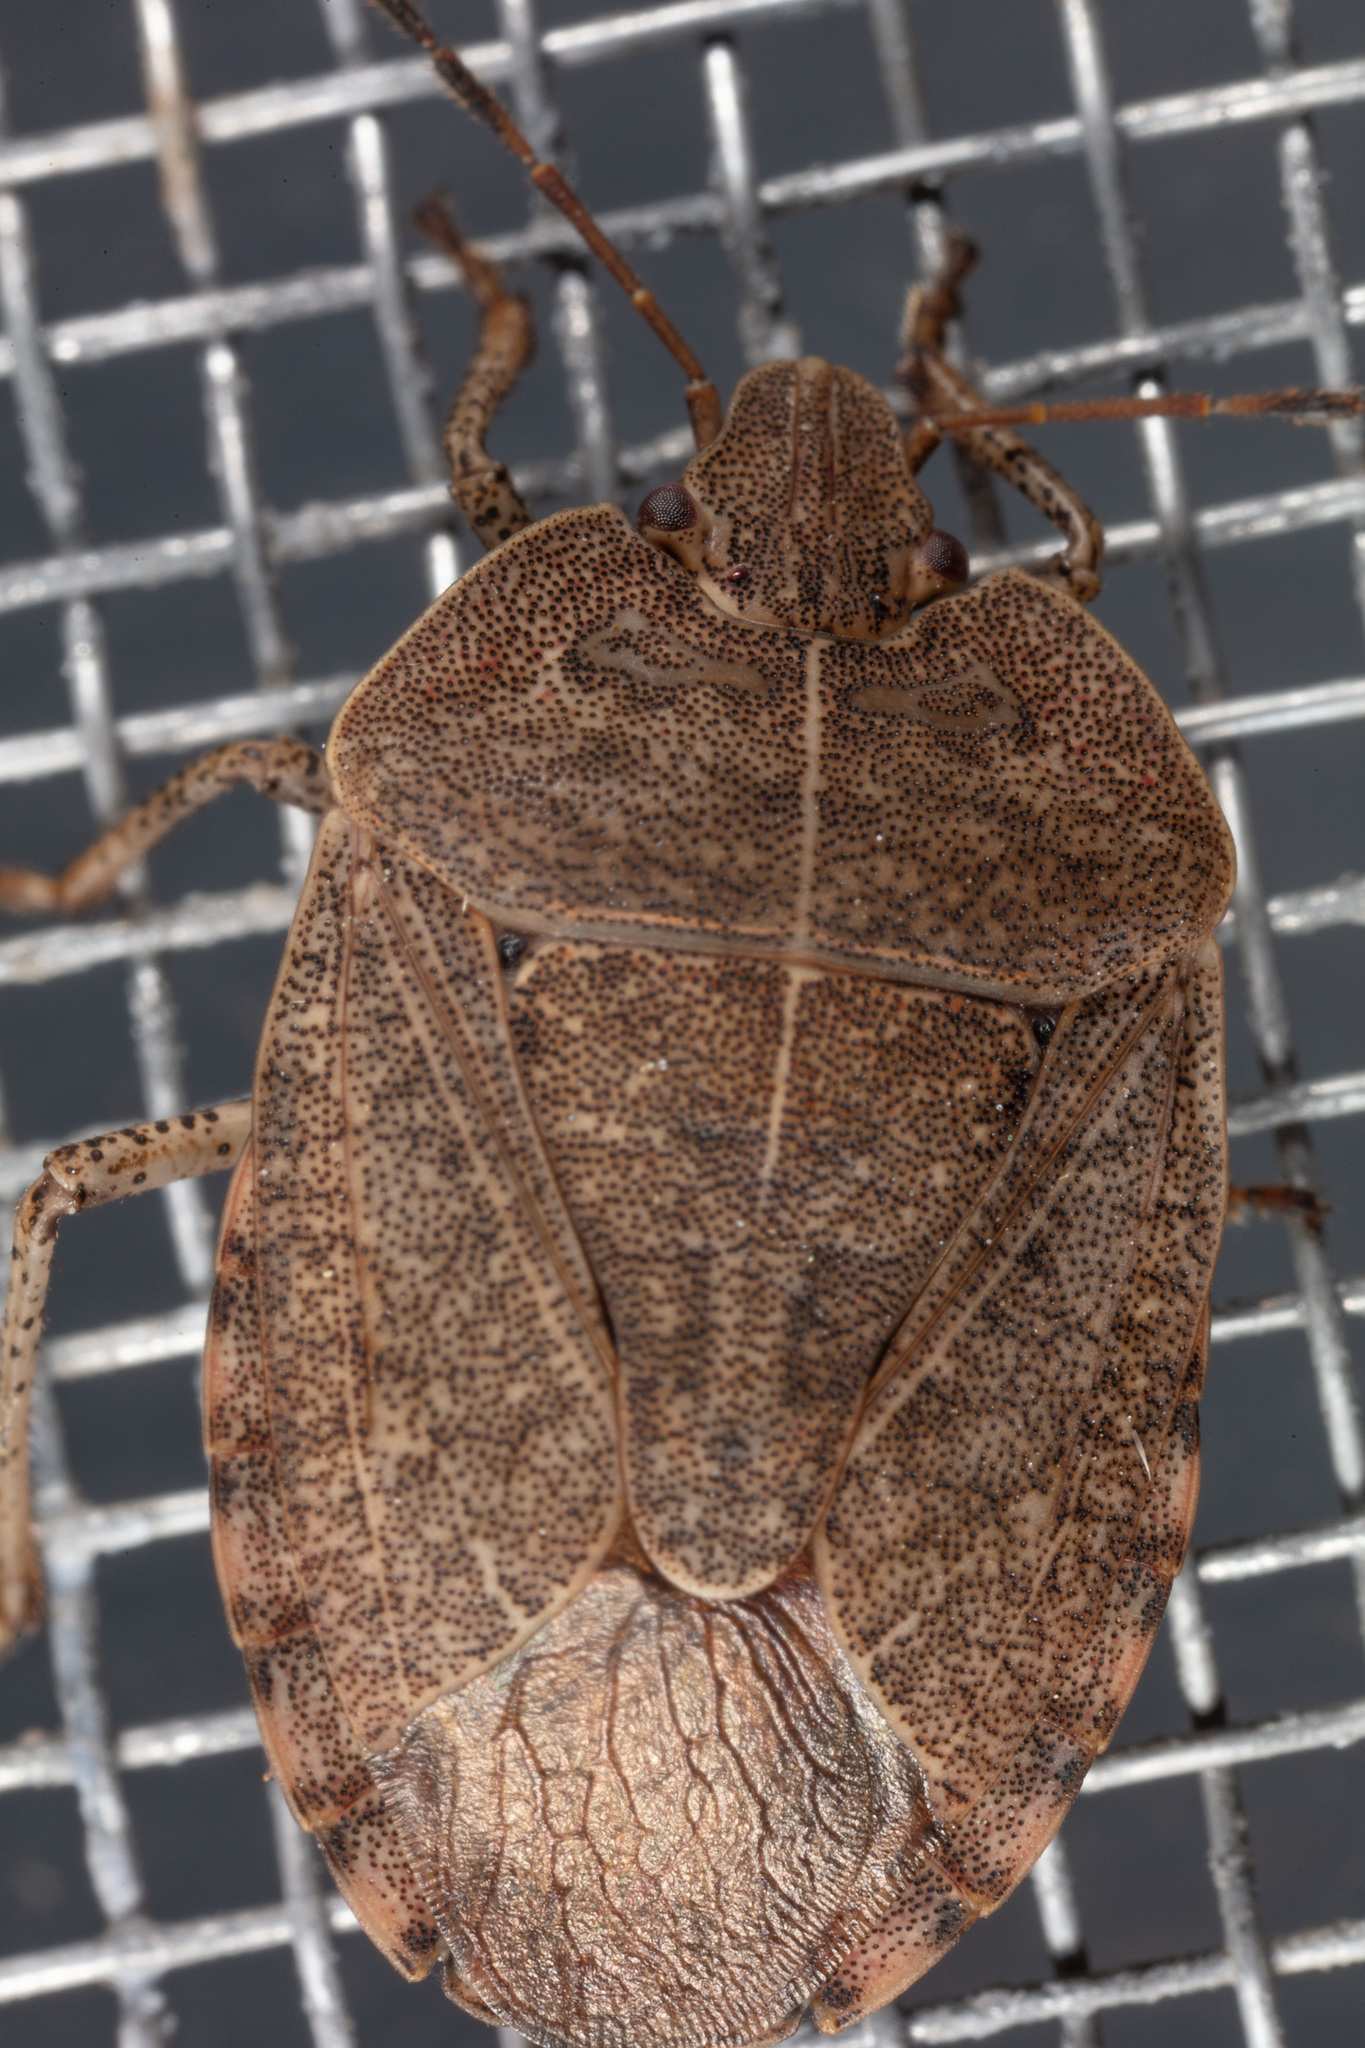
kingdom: Animalia
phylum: Arthropoda
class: Insecta
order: Hemiptera
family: Pentatomidae
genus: Menecles
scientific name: Menecles insertus
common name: Elf shoe stink bug
